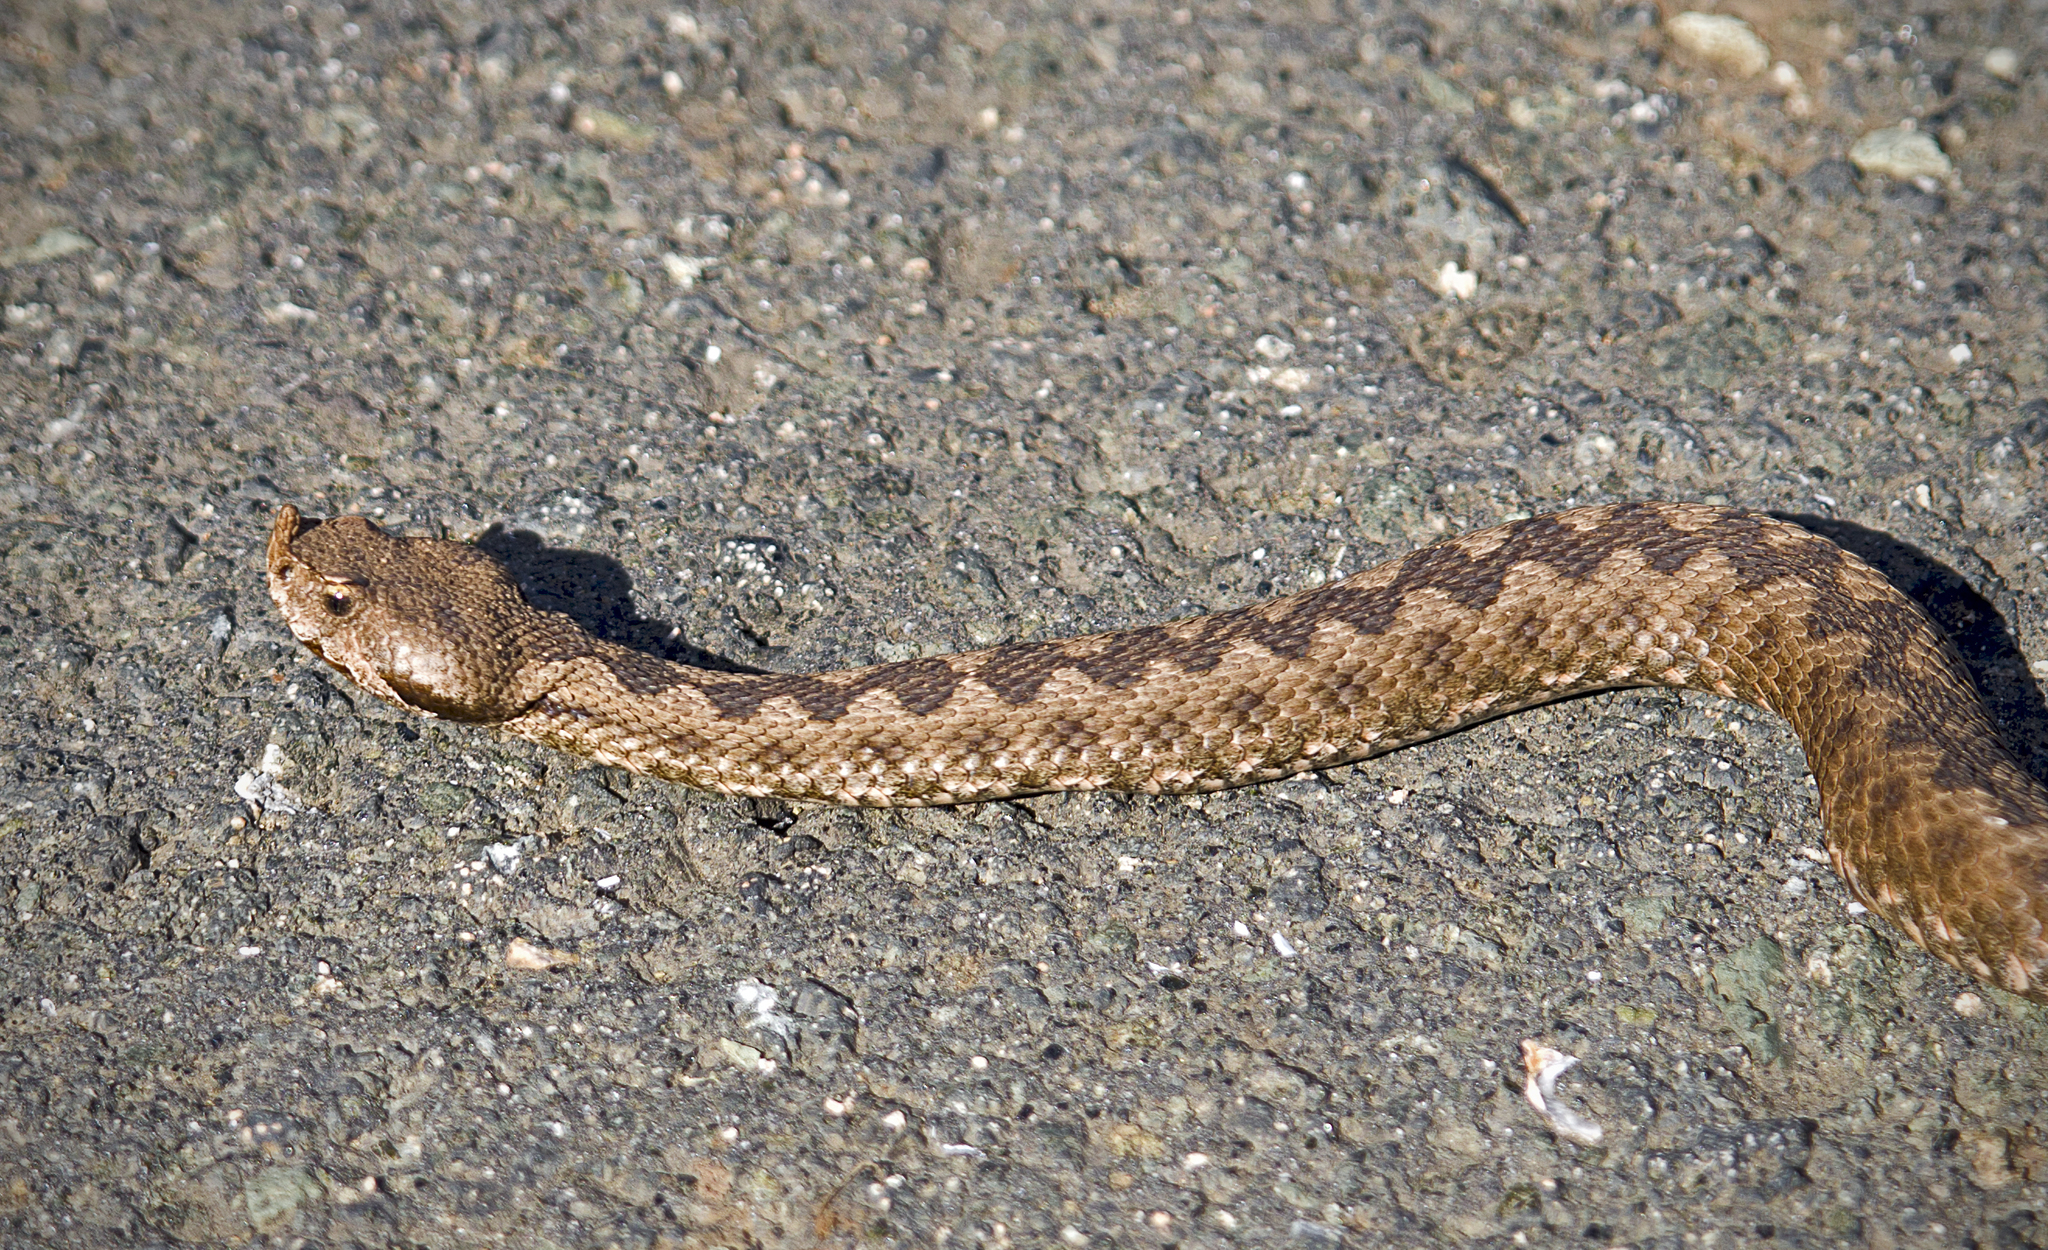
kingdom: Animalia
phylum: Chordata
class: Squamata
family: Viperidae
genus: Vipera
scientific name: Vipera ammodytes
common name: Sand viper
